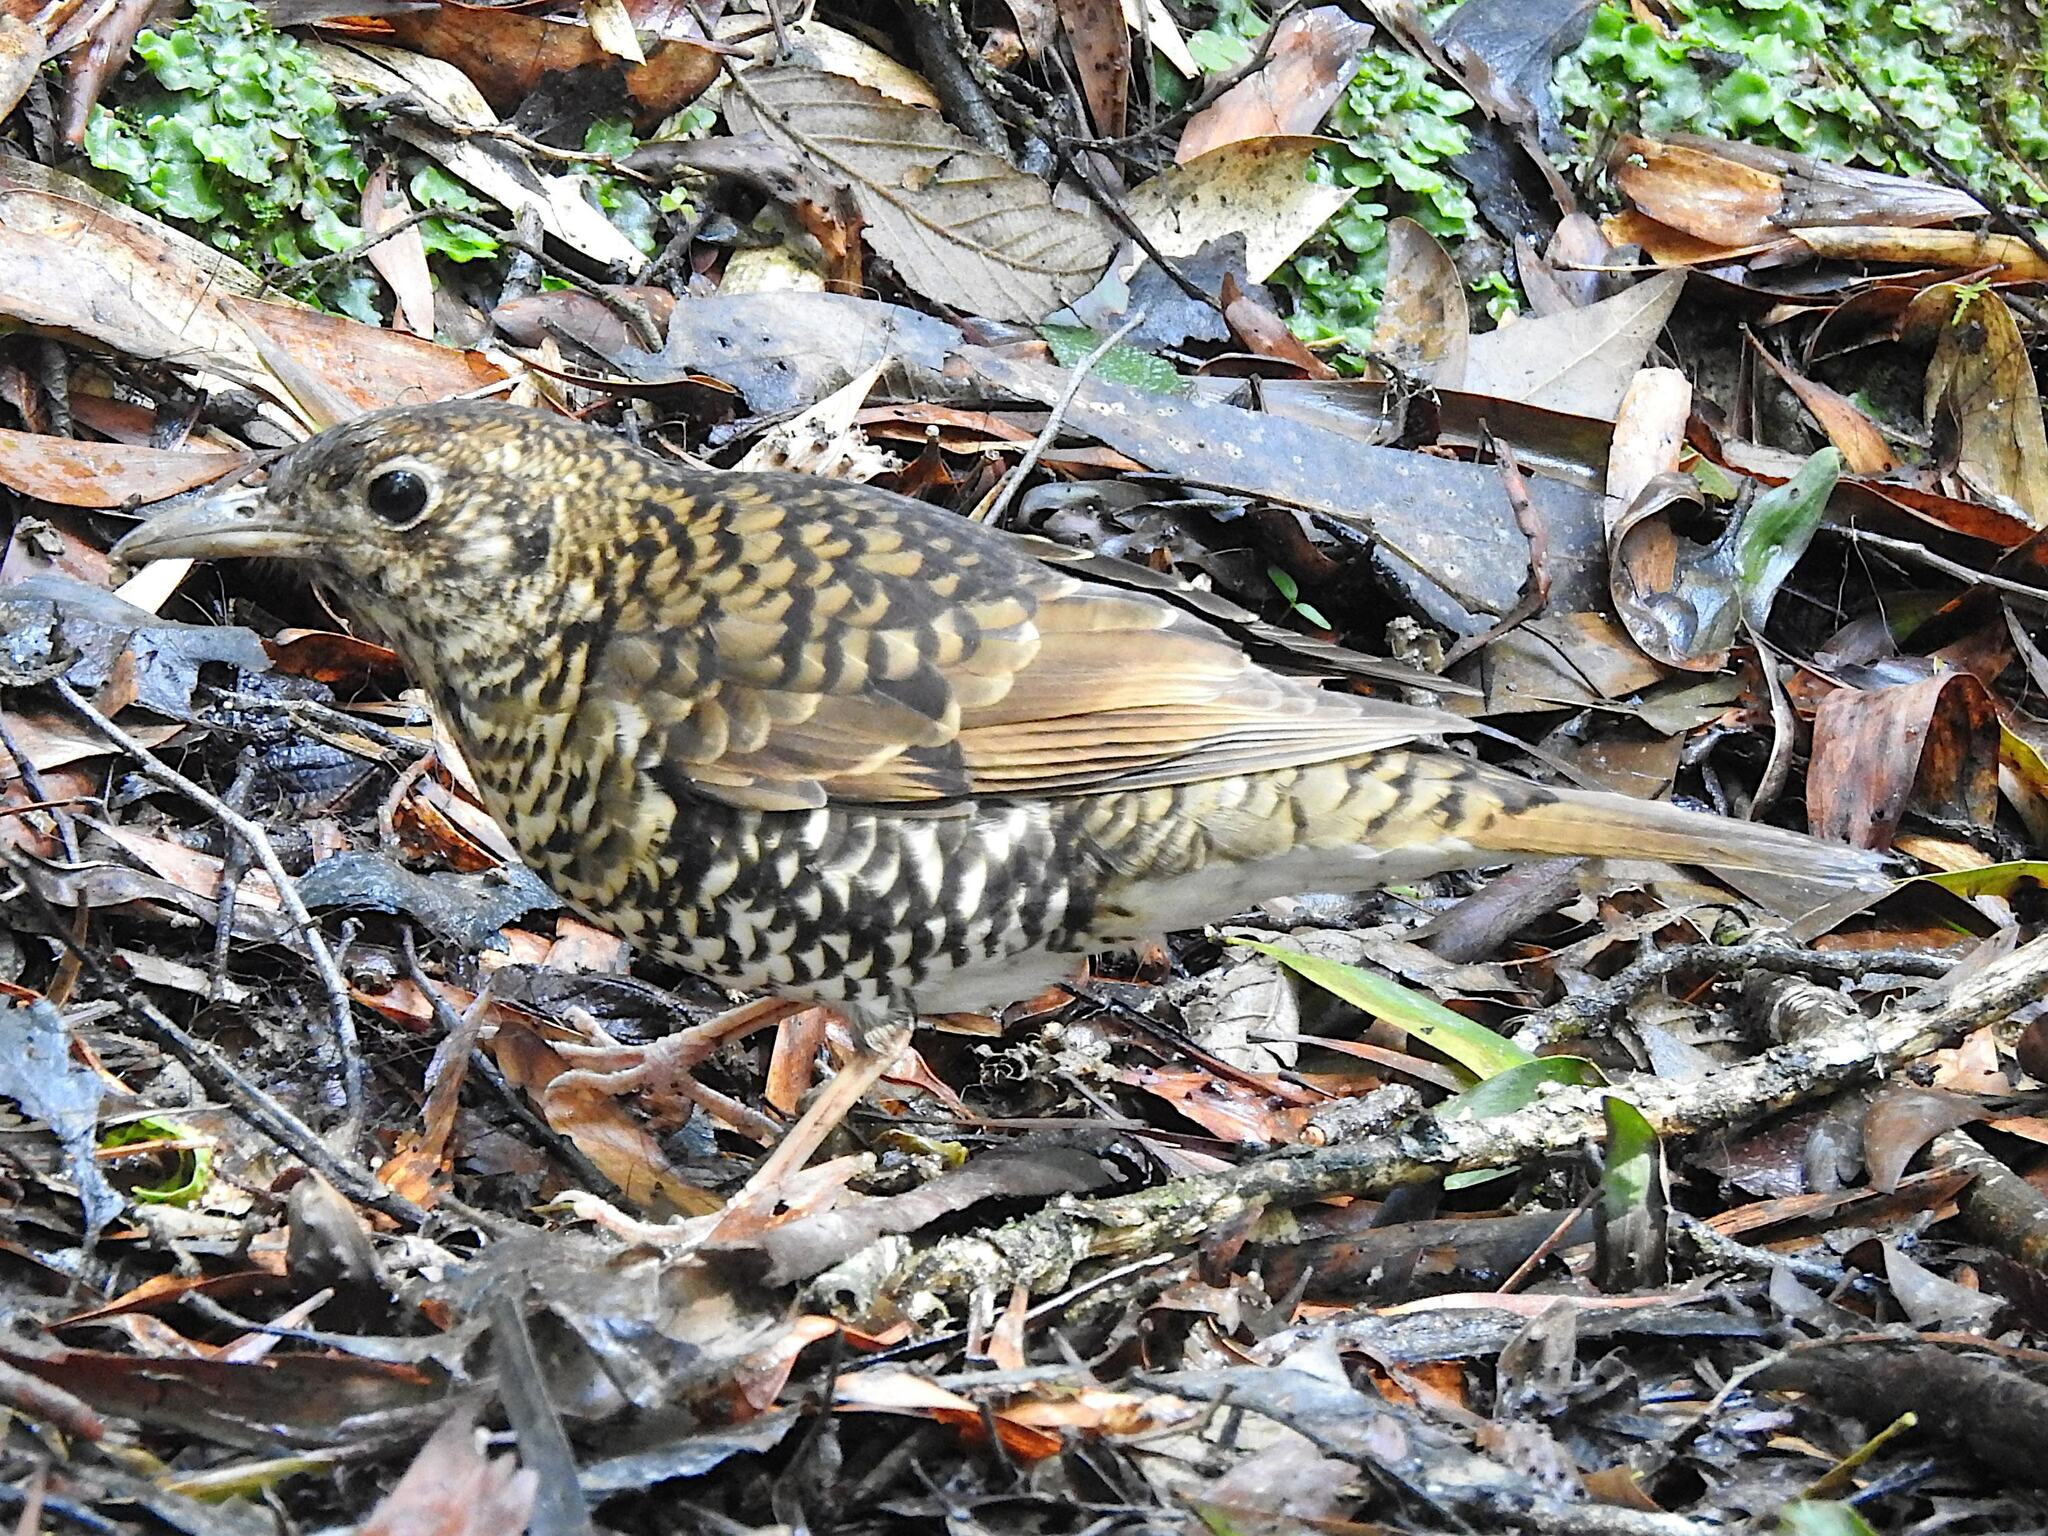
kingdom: Animalia
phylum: Chordata
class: Aves
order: Passeriformes
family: Turdidae
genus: Zoothera
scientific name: Zoothera lunulata
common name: Bassian thrush
